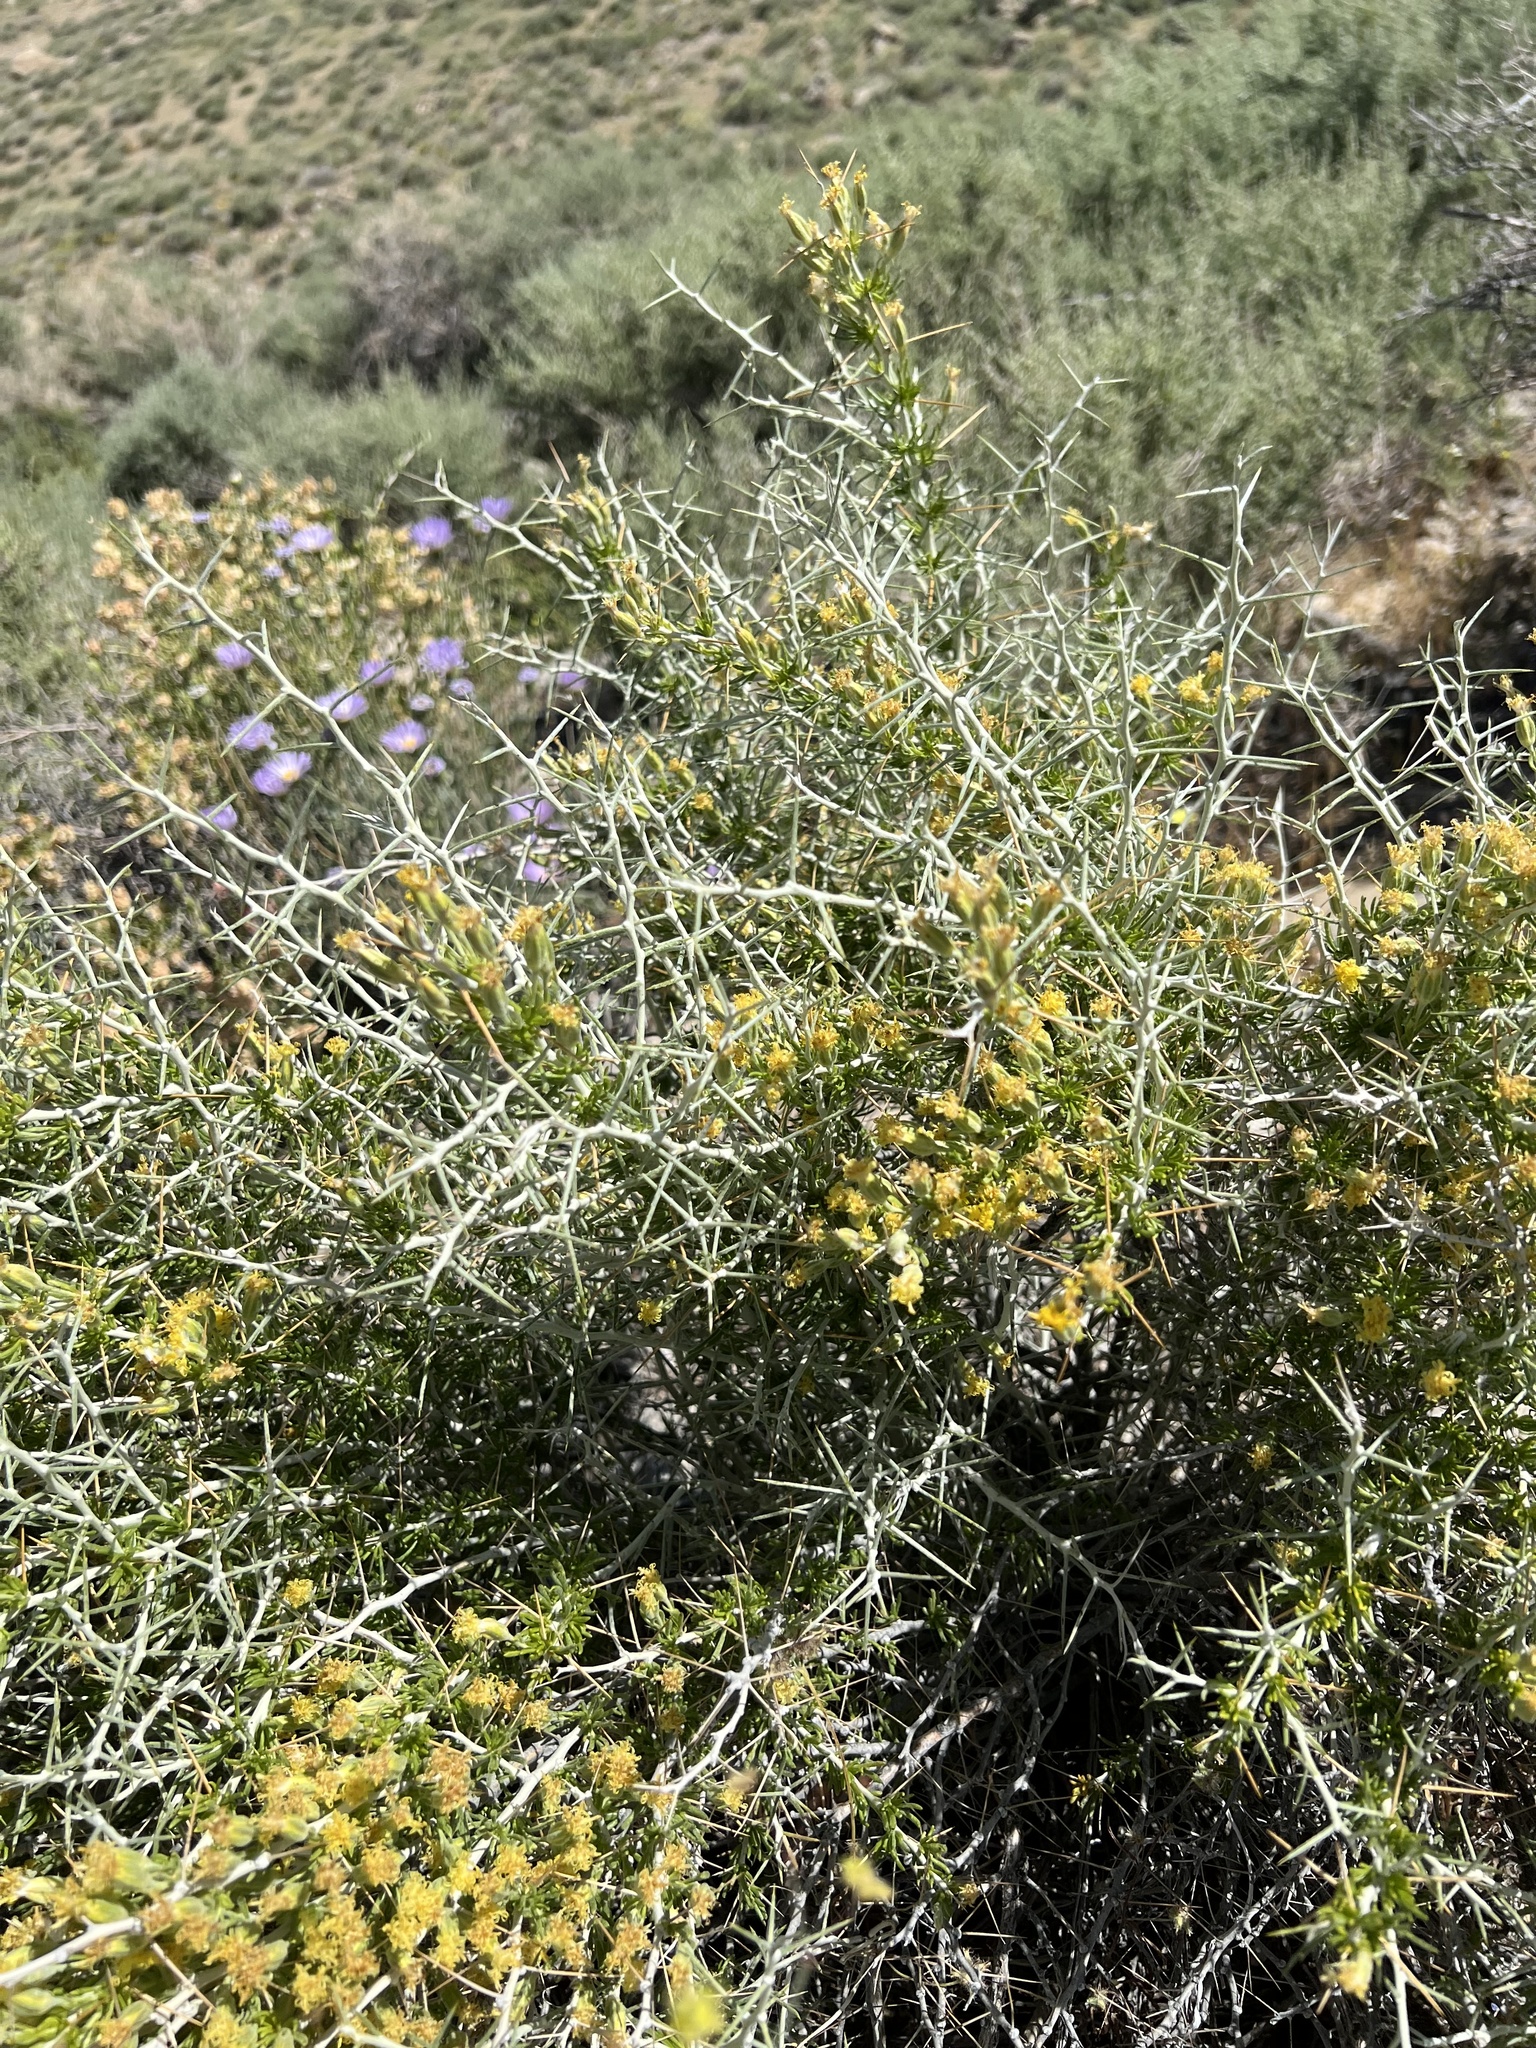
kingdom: Plantae
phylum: Tracheophyta
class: Magnoliopsida
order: Asterales
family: Asteraceae
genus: Tetradymia
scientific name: Tetradymia axillaris
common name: Long-spine horsebrush
